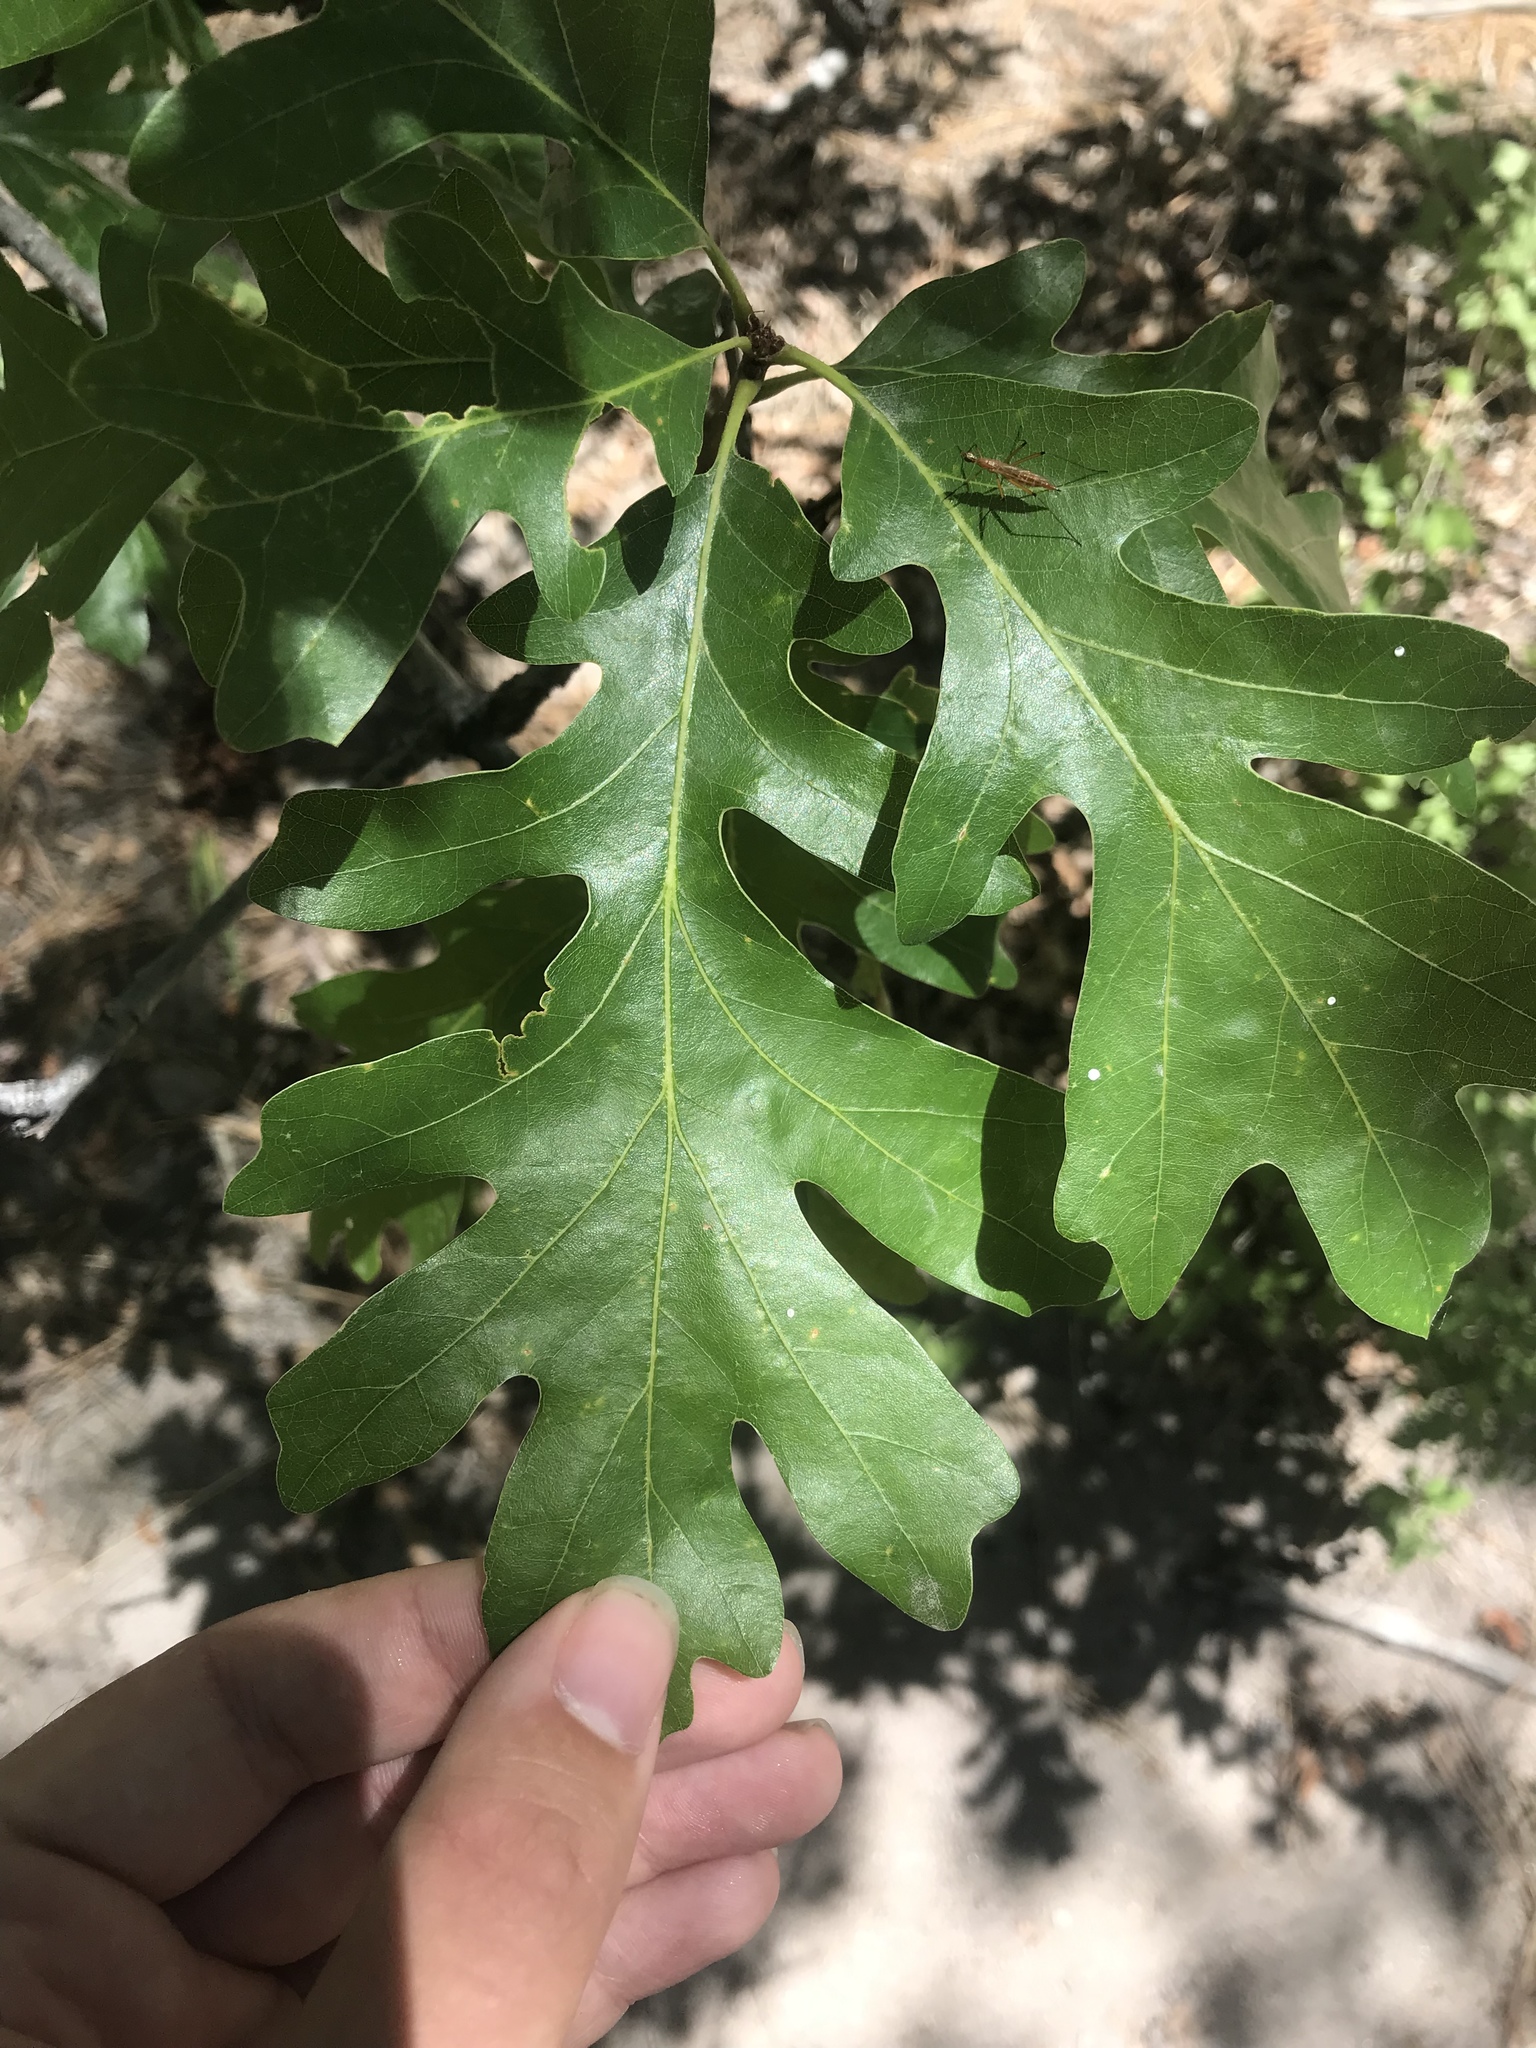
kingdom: Plantae
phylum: Tracheophyta
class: Magnoliopsida
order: Fagales
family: Fagaceae
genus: Quercus
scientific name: Quercus gambelii
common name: Gambel oak
